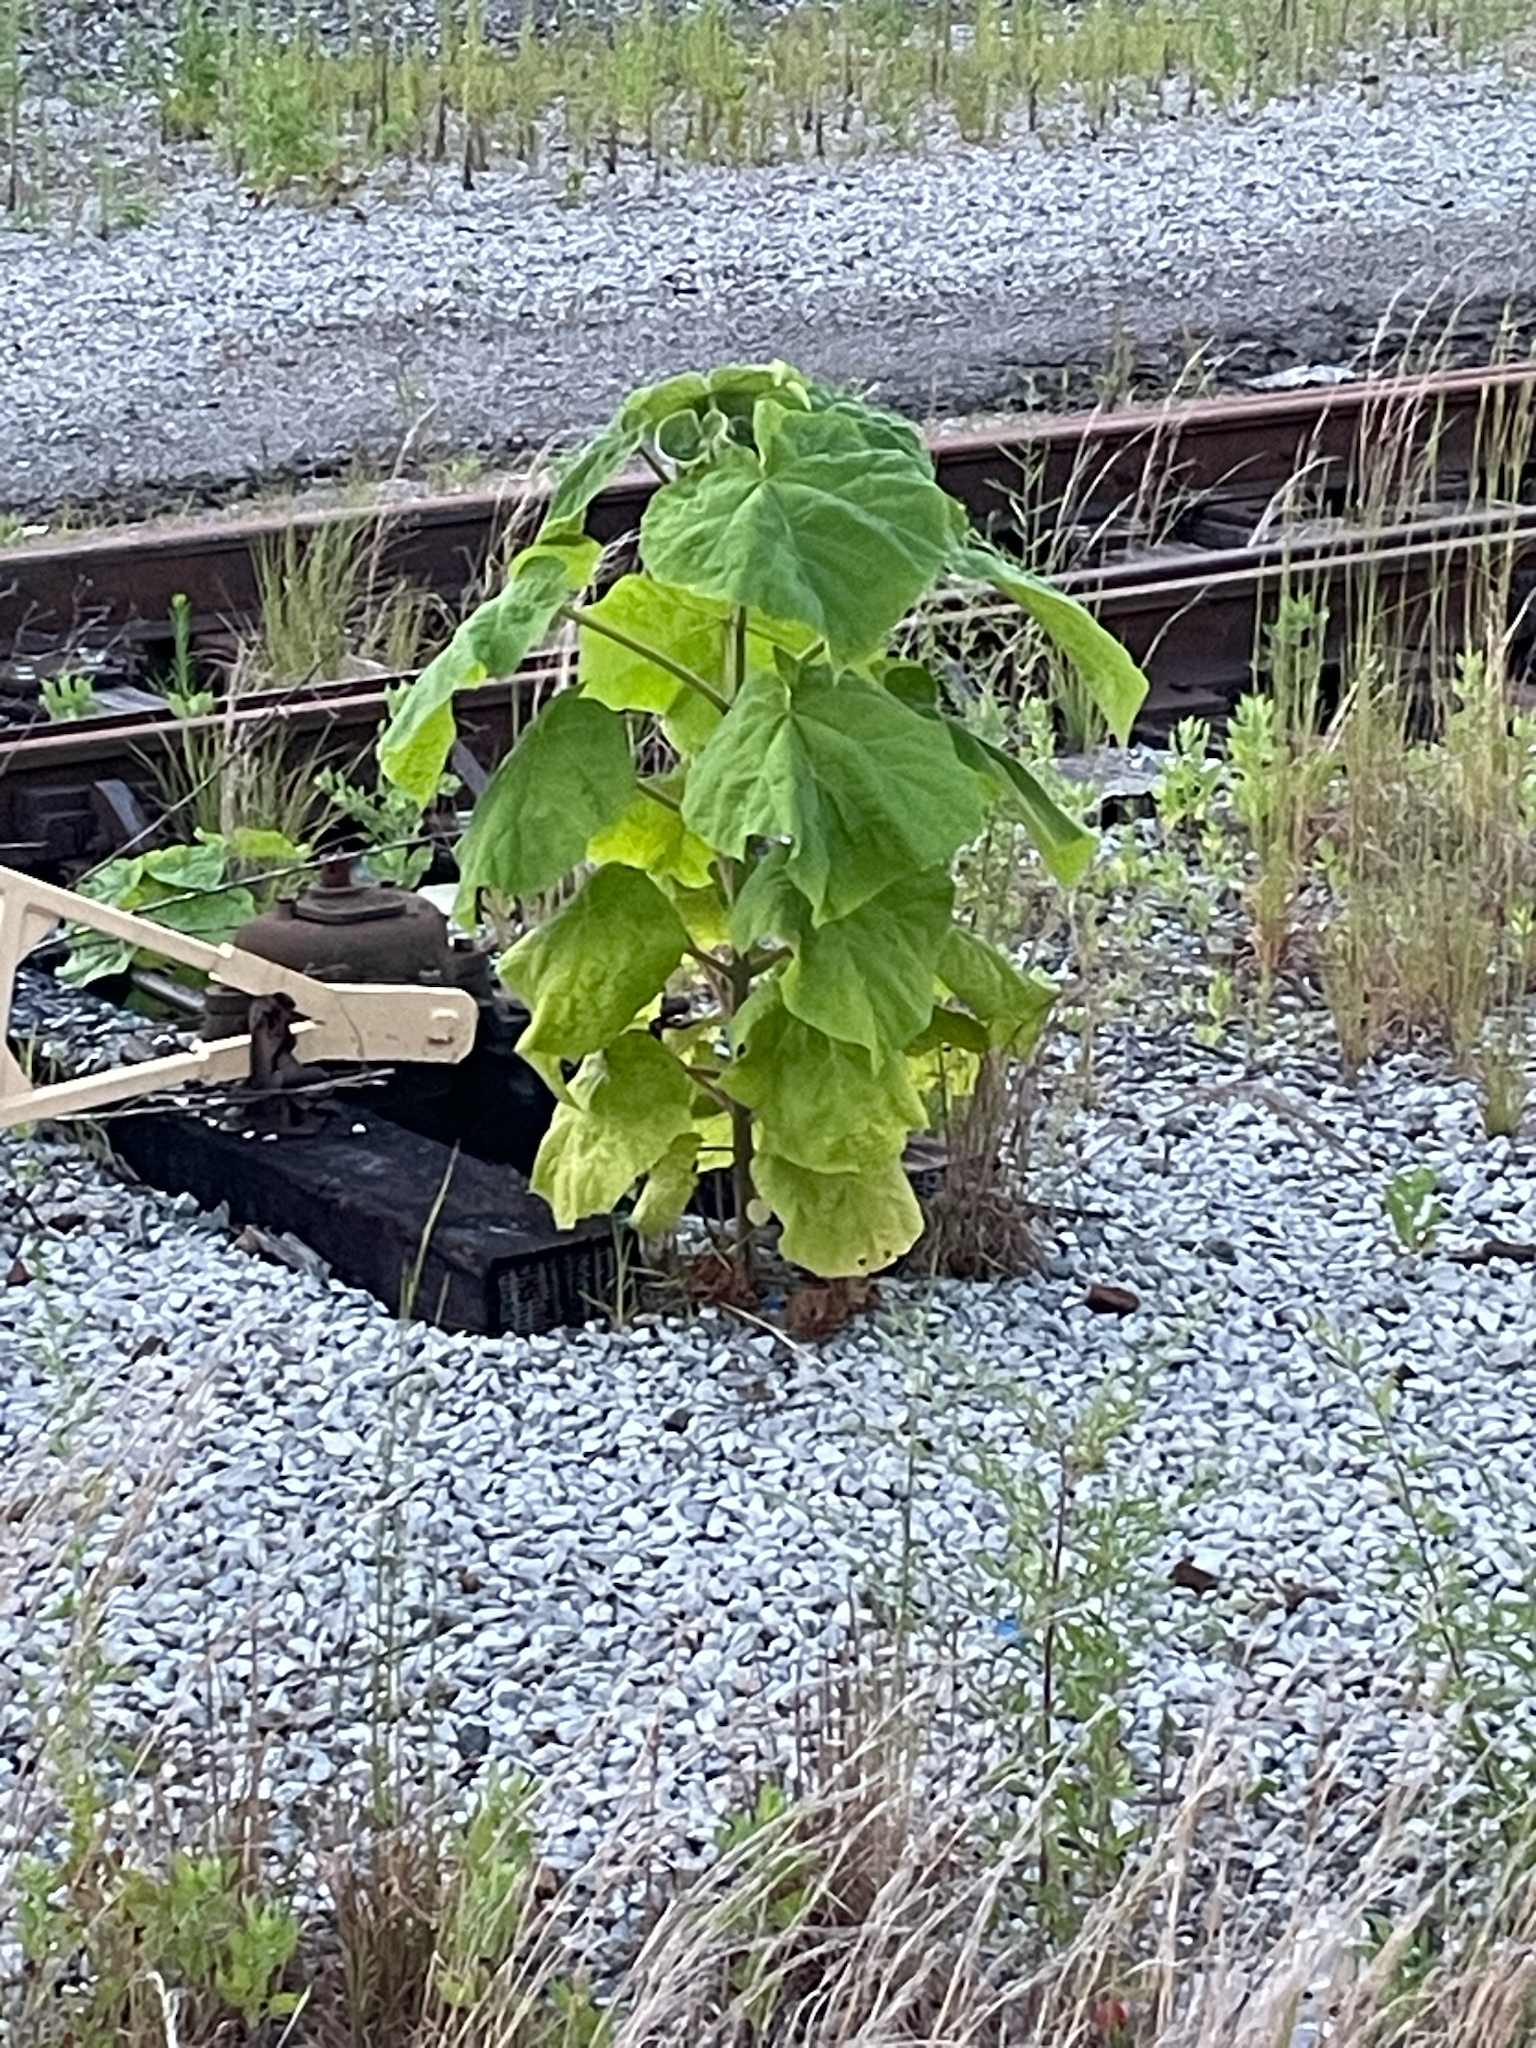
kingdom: Plantae
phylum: Tracheophyta
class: Magnoliopsida
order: Lamiales
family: Paulowniaceae
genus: Paulownia
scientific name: Paulownia tomentosa
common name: Foxglove-tree
